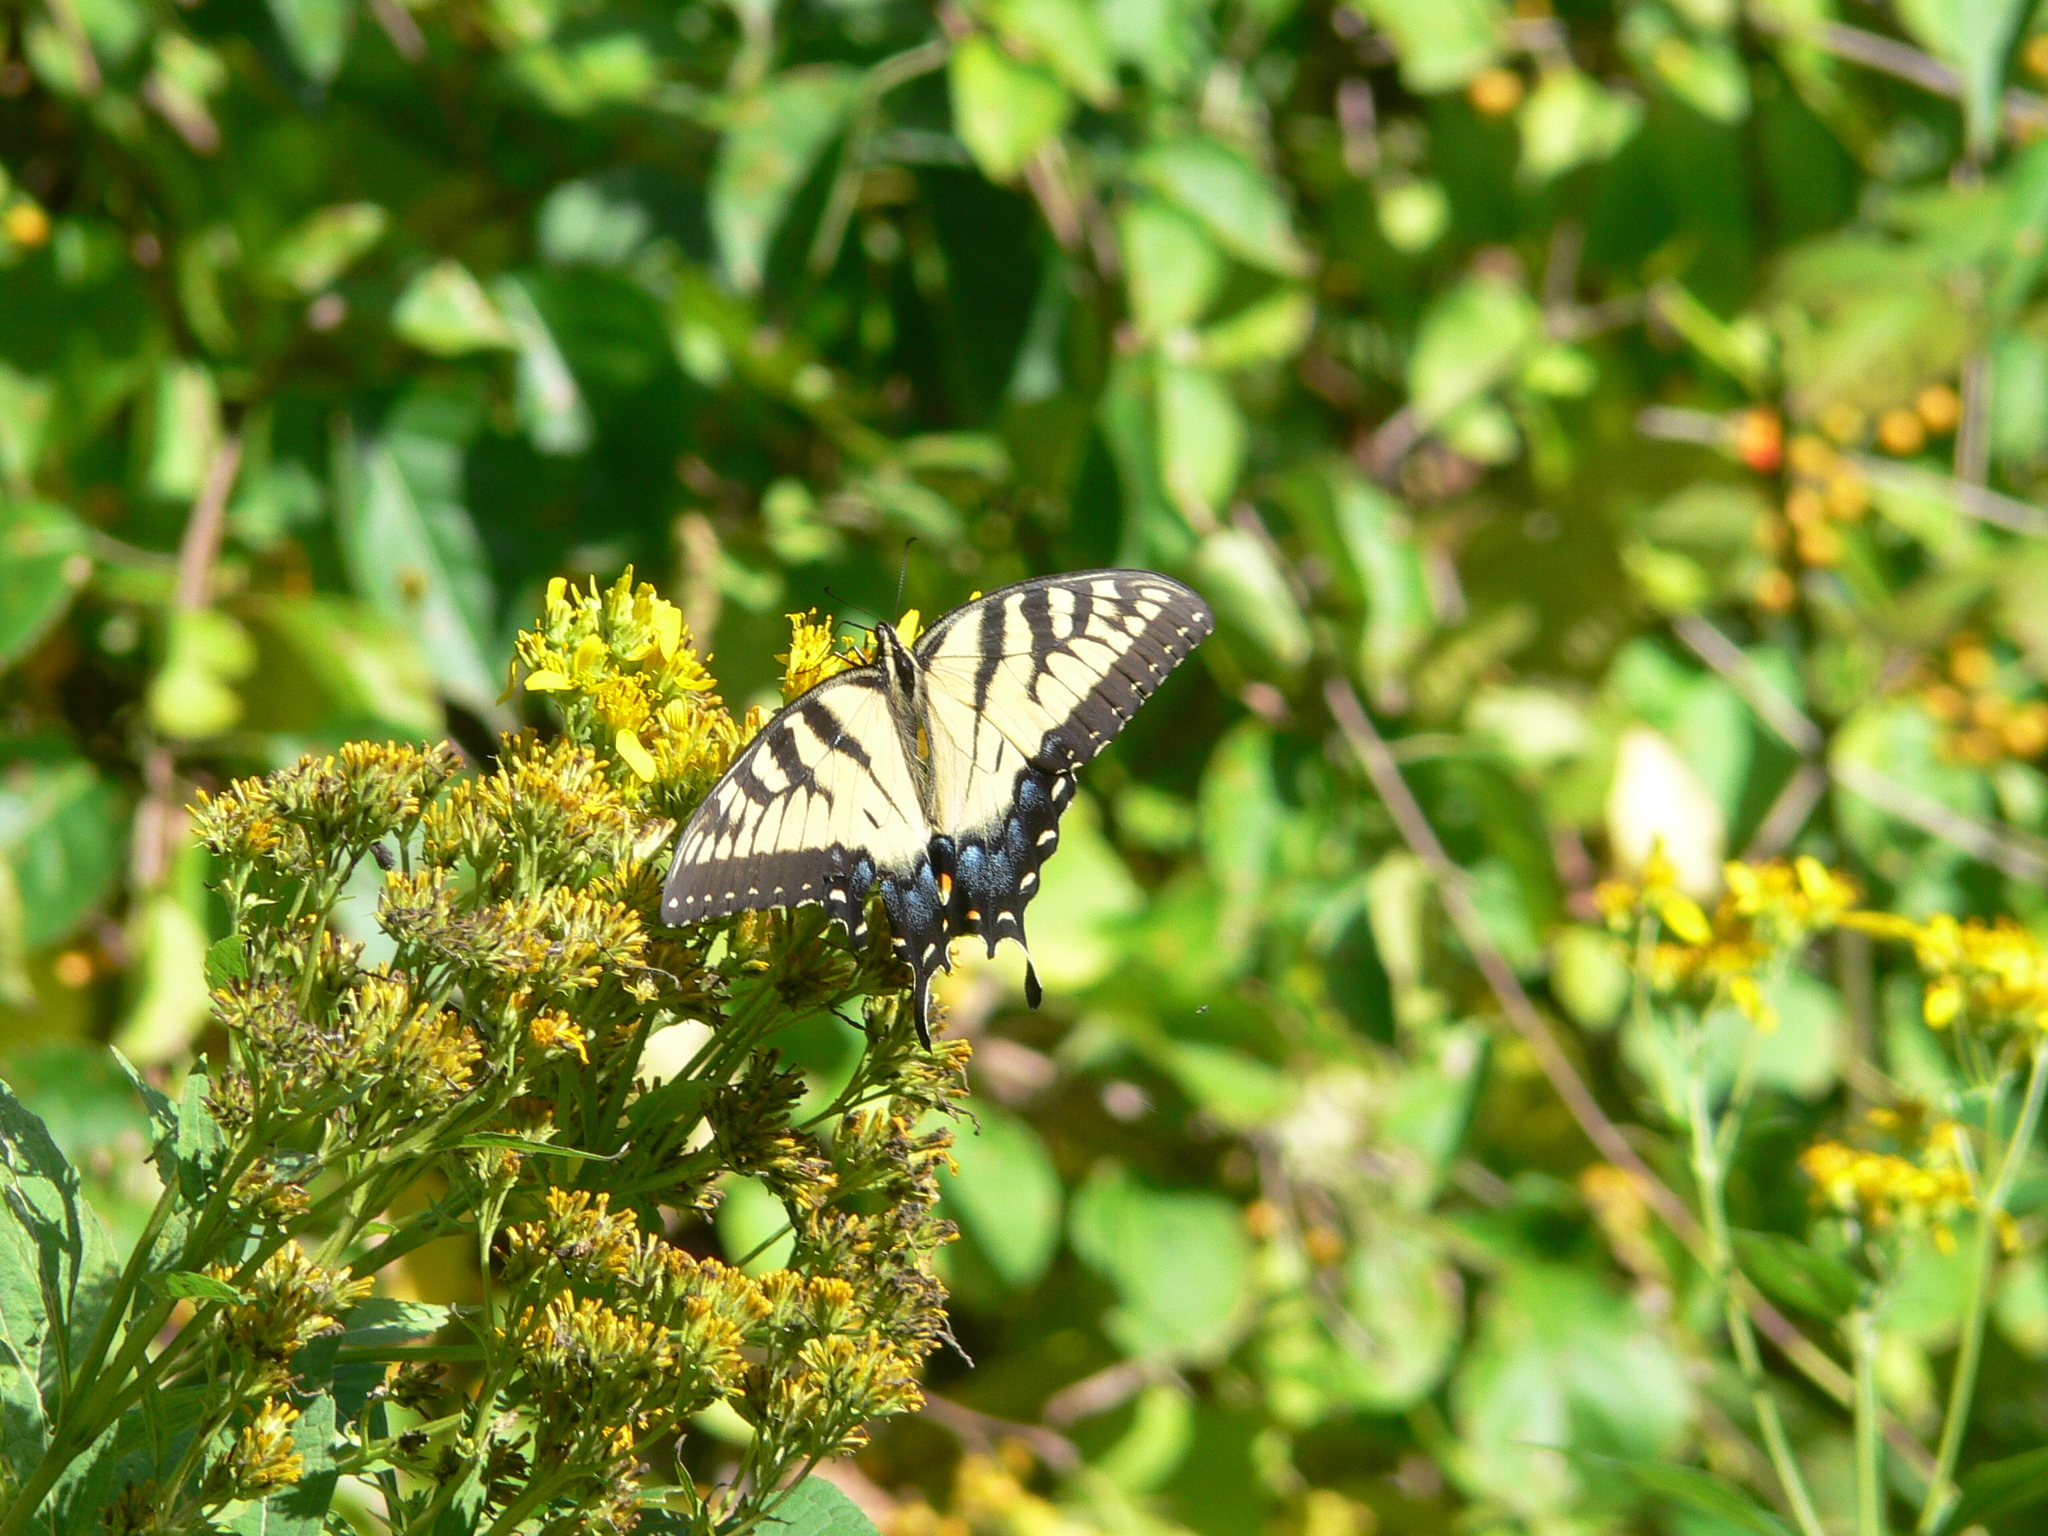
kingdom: Animalia
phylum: Arthropoda
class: Insecta
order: Lepidoptera
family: Papilionidae
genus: Papilio
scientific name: Papilio glaucus
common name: Tiger swallowtail
